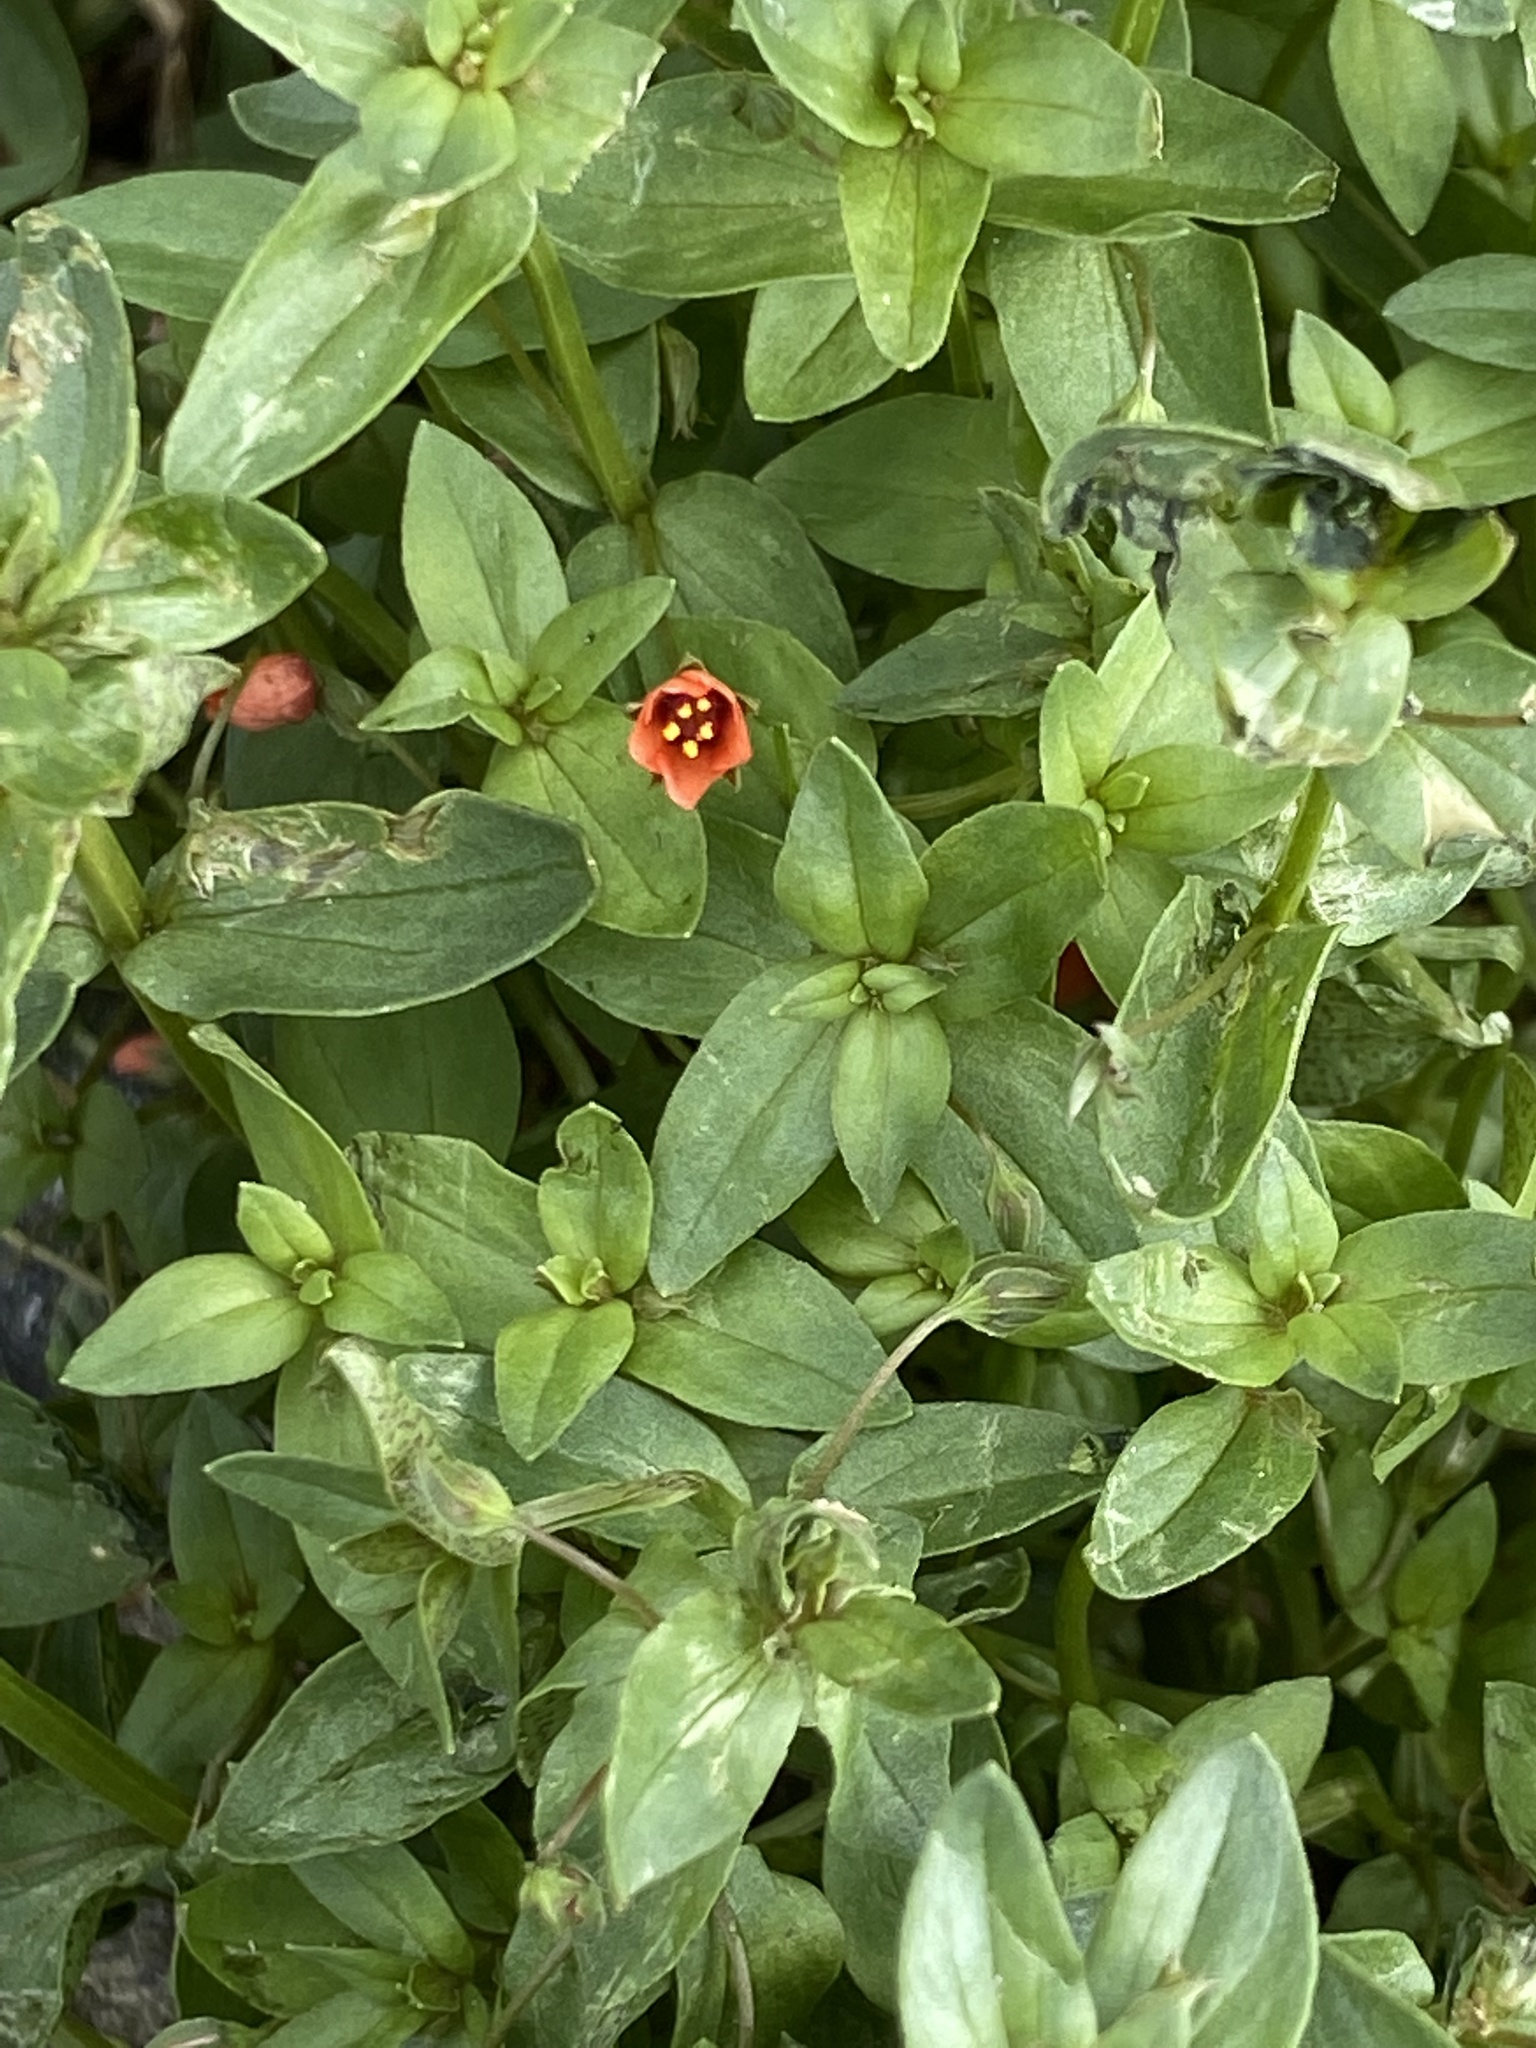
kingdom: Plantae
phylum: Tracheophyta
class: Magnoliopsida
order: Ericales
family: Primulaceae
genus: Lysimachia
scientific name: Lysimachia arvensis
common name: Scarlet pimpernel
